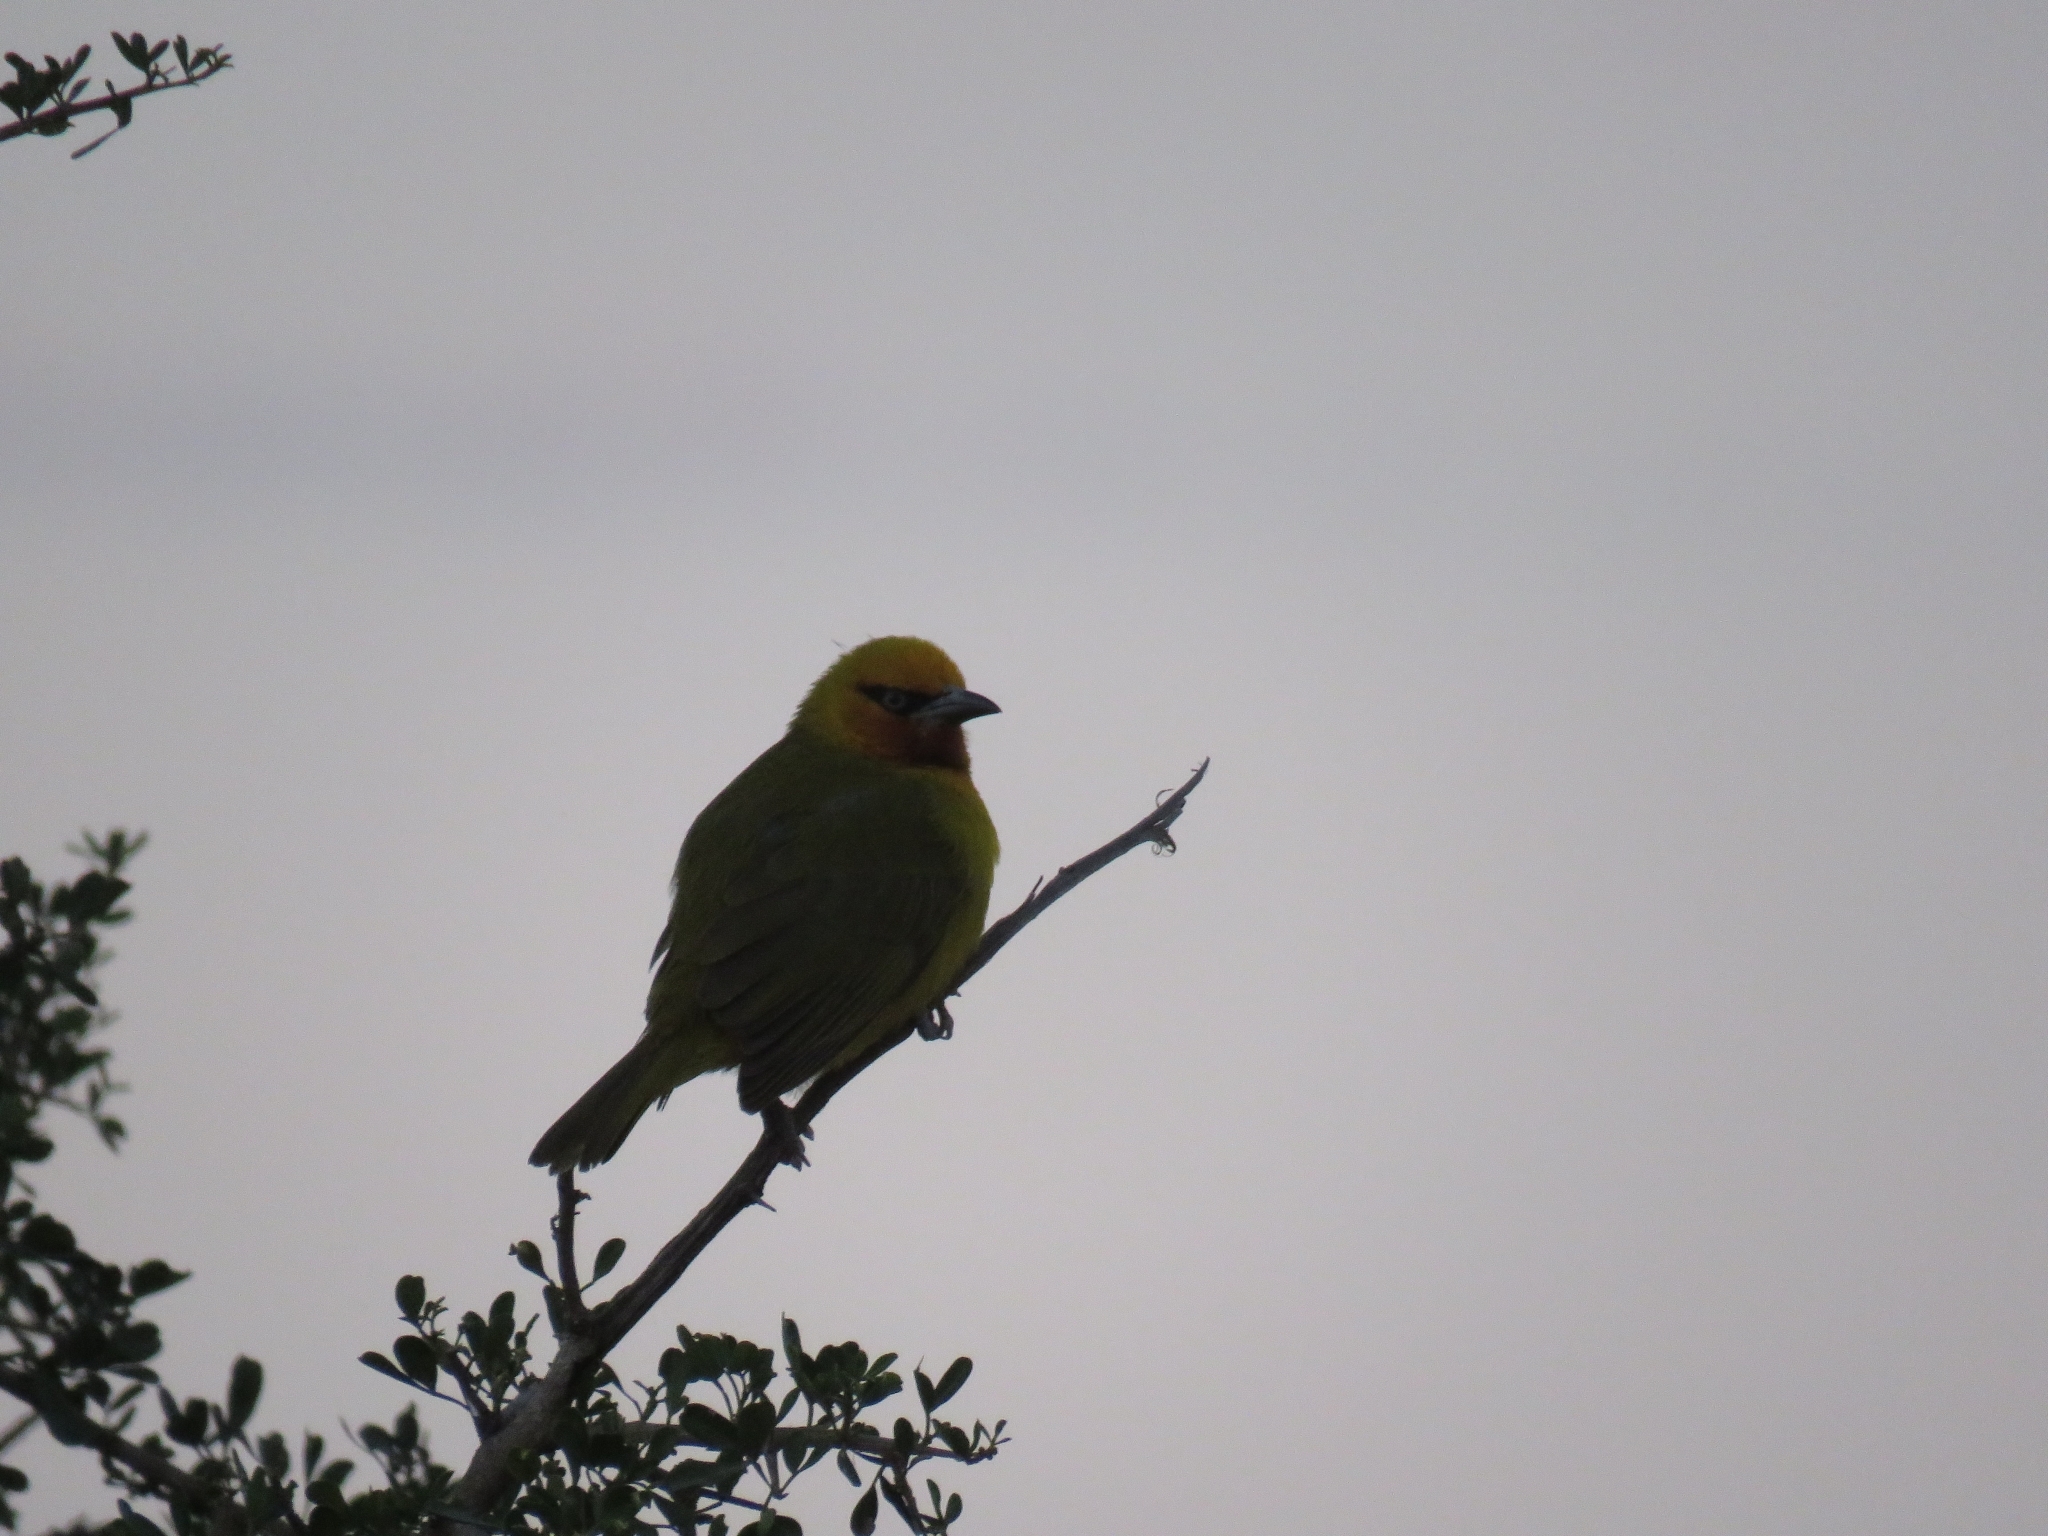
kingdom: Animalia
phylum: Chordata
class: Aves
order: Passeriformes
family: Ploceidae
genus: Ploceus
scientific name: Ploceus ocularis
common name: Spectacled weaver
